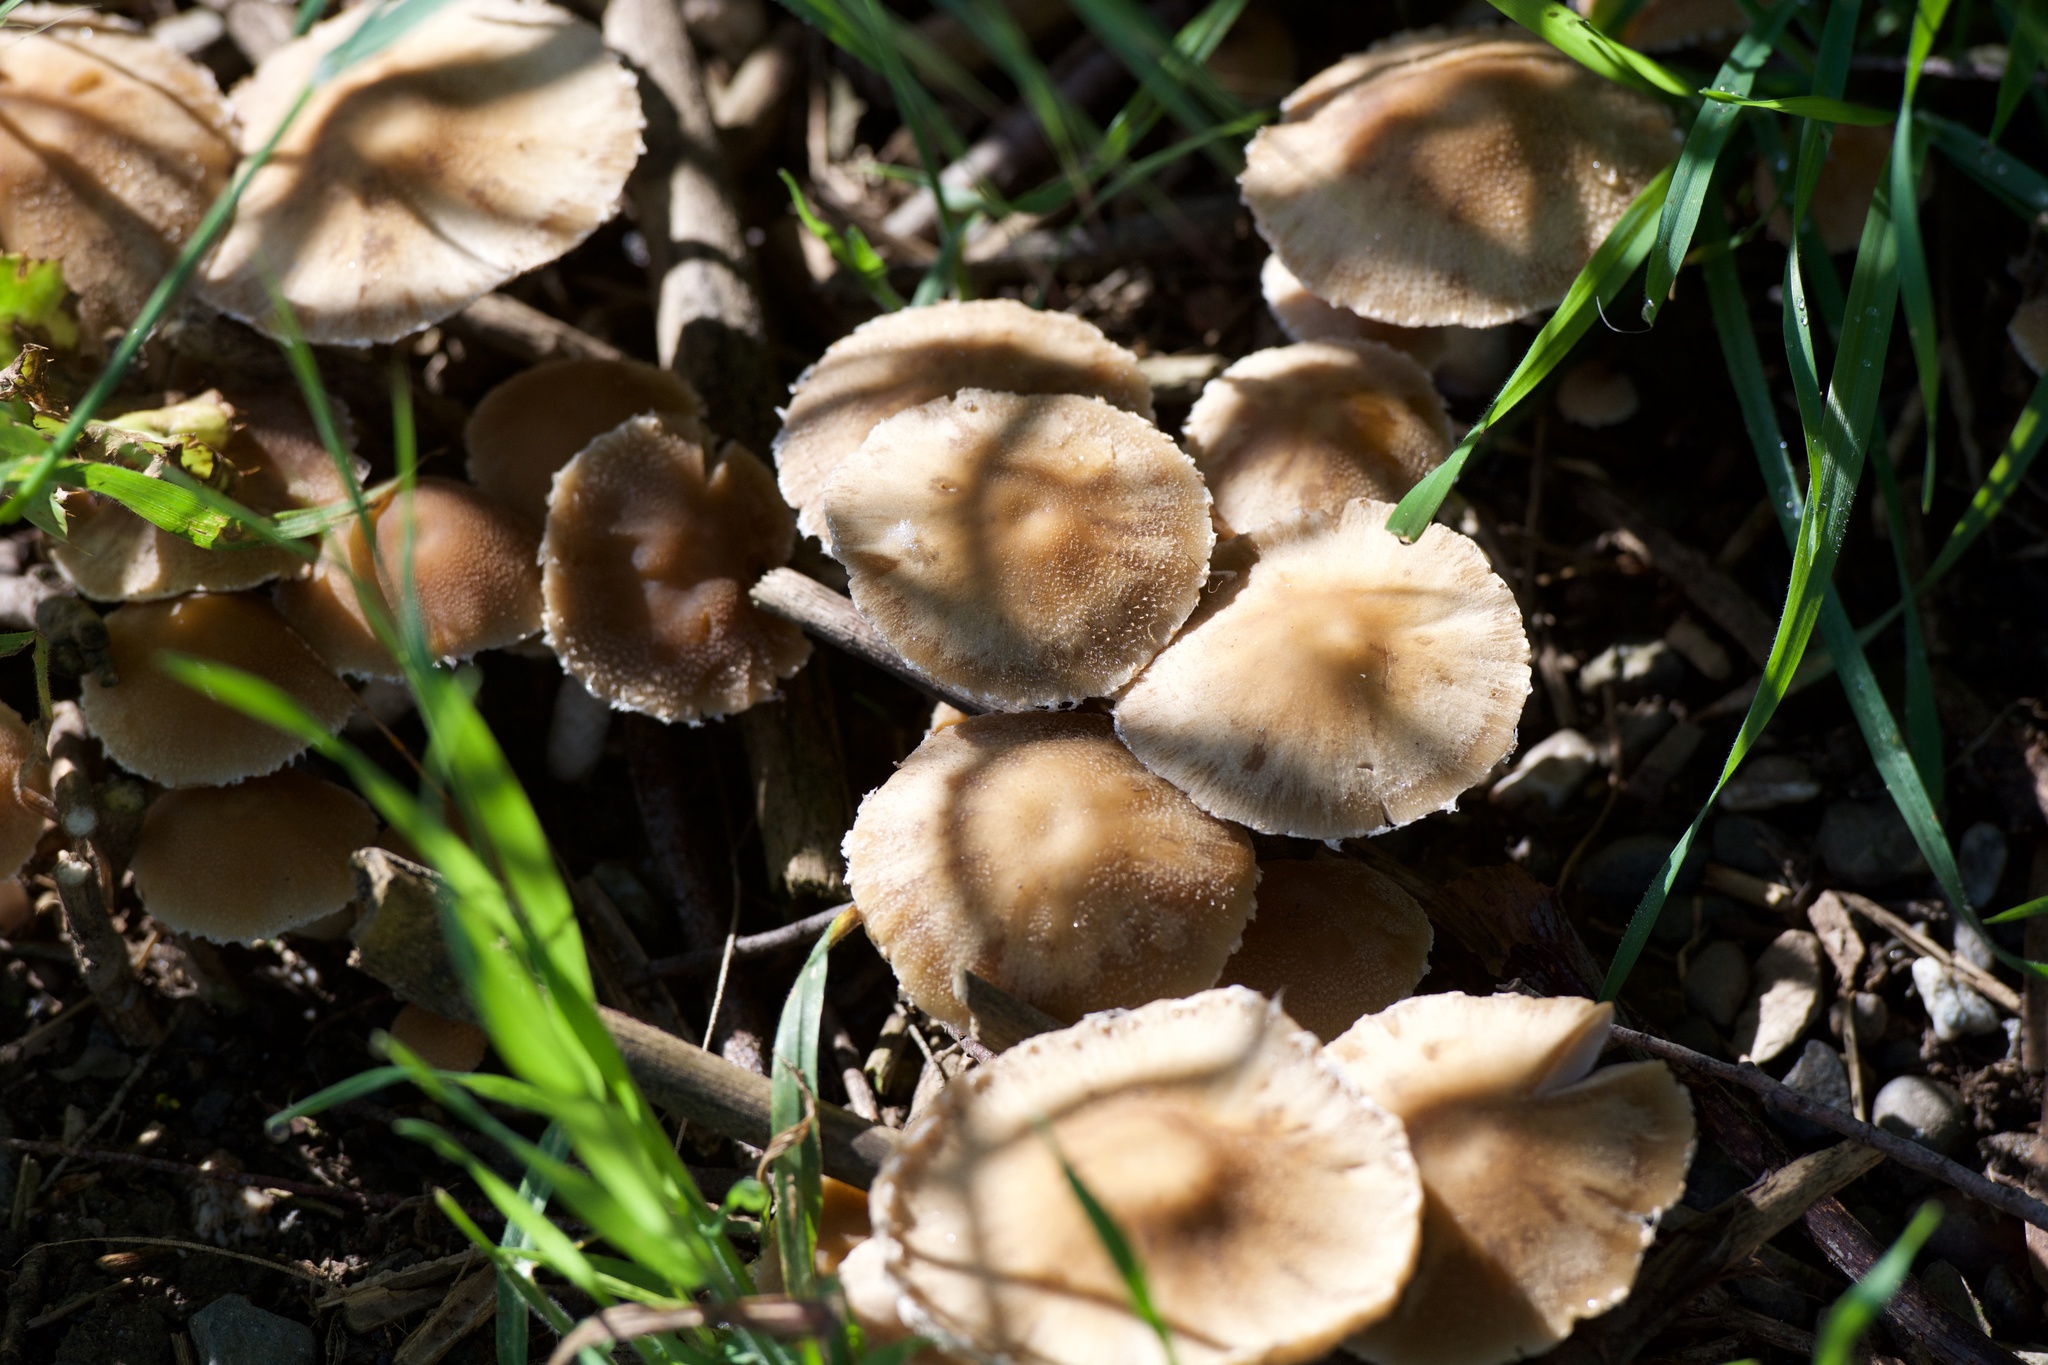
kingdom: Fungi
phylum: Basidiomycota
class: Agaricomycetes
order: Agaricales
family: Psathyrellaceae
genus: Candolleomyces
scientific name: Candolleomyces candolleanus
